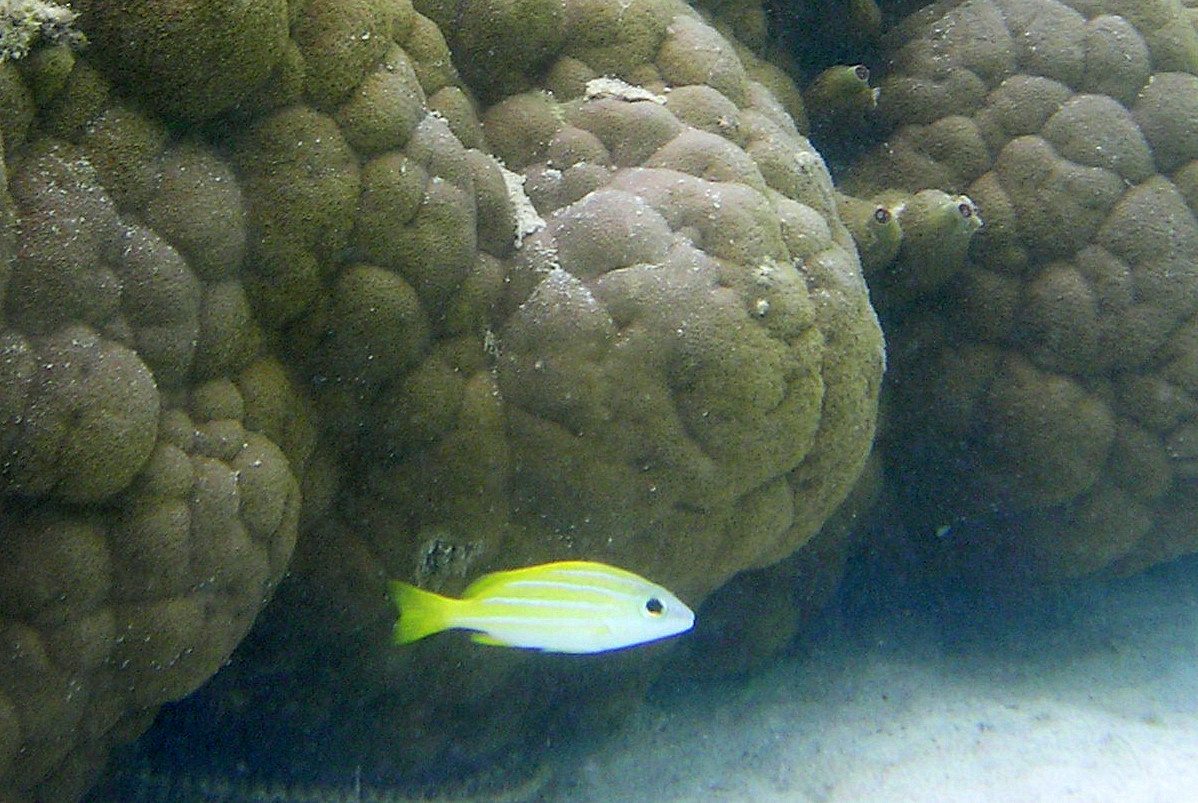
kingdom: Animalia
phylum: Chordata
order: Perciformes
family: Lutjanidae
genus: Lutjanus
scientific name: Lutjanus kasmira
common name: Common bluestripe snapper
